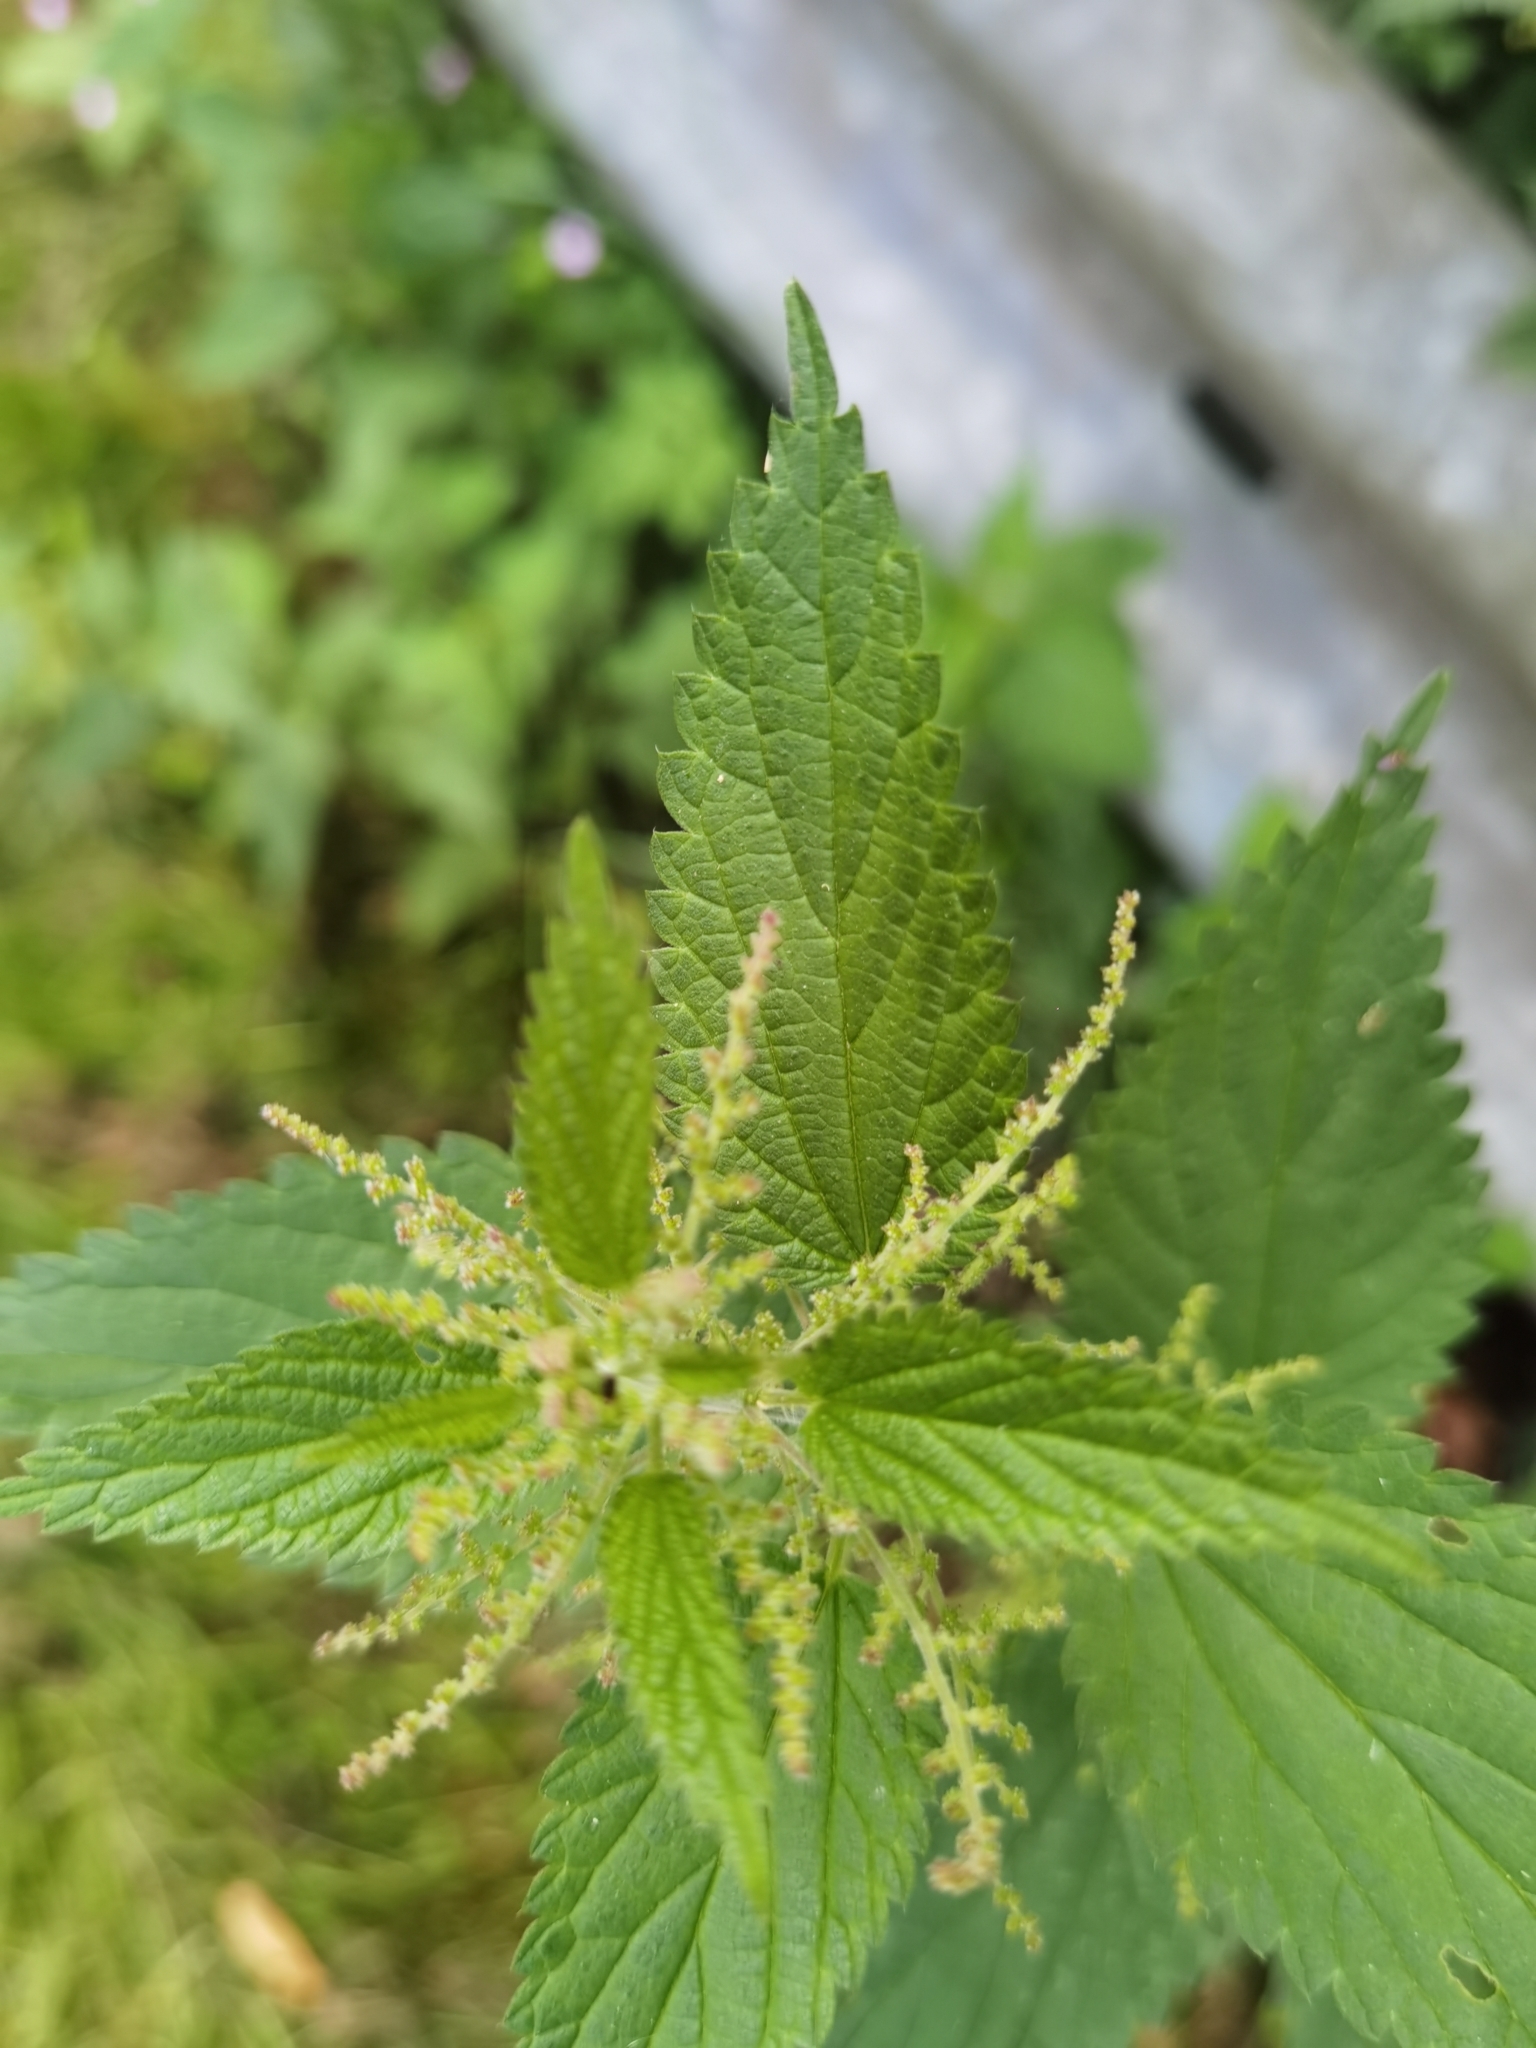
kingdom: Plantae
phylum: Tracheophyta
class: Magnoliopsida
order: Rosales
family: Urticaceae
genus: Urtica
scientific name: Urtica dioica
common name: Common nettle
